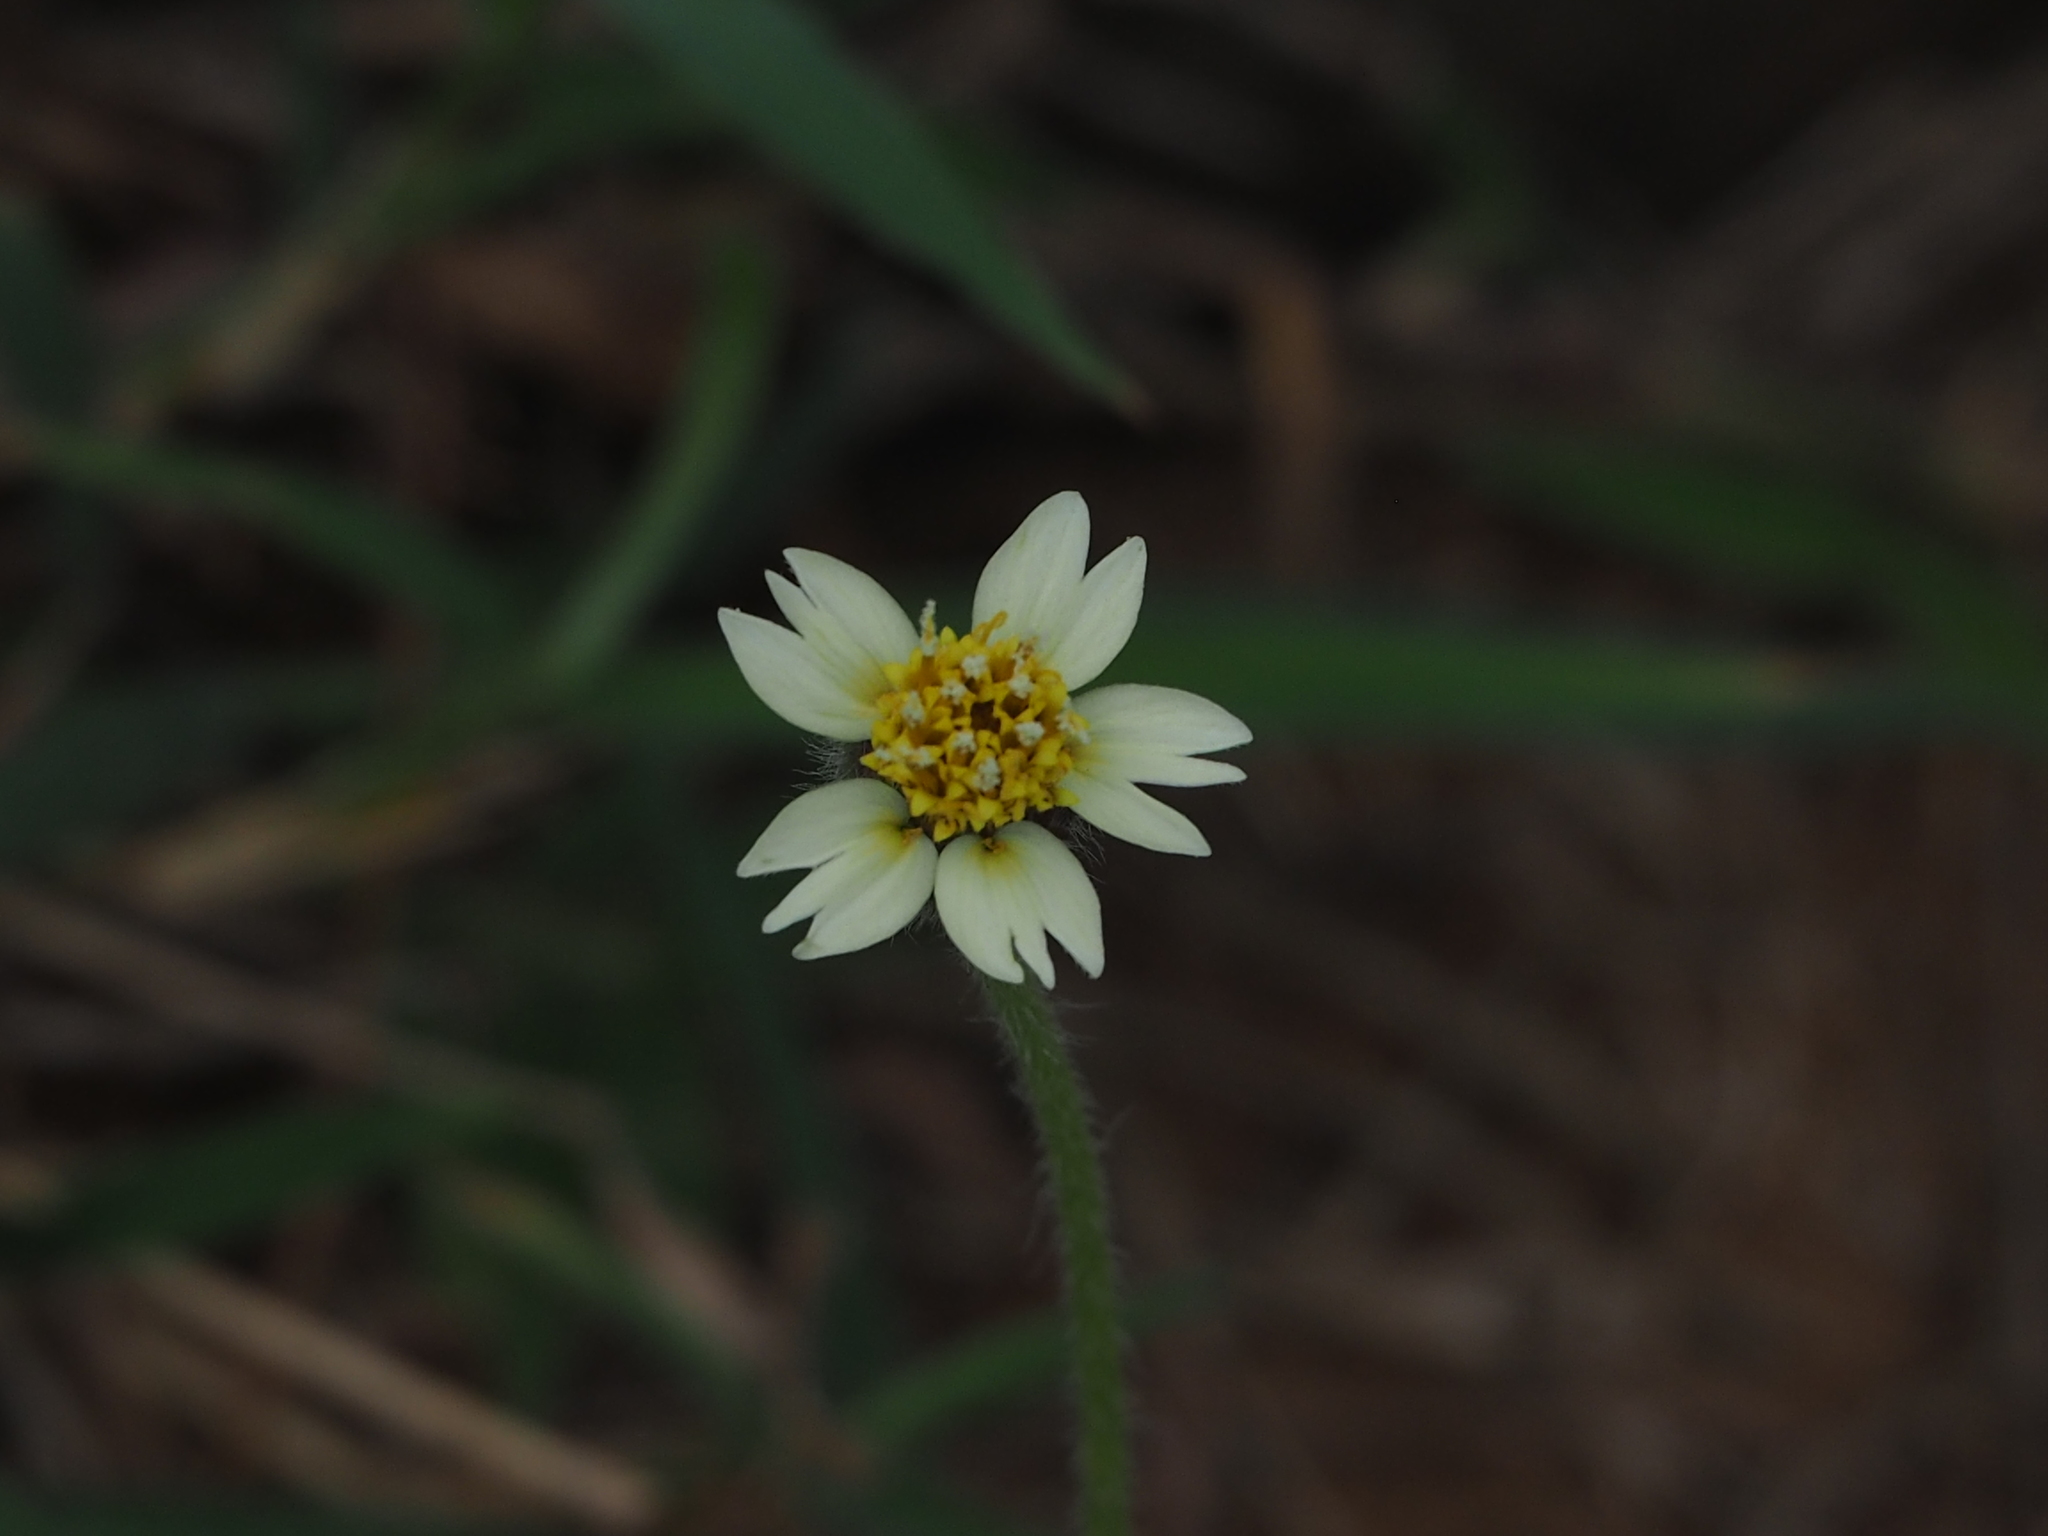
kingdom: Plantae
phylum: Tracheophyta
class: Magnoliopsida
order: Asterales
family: Asteraceae
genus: Tridax
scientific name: Tridax procumbens
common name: Coatbuttons
